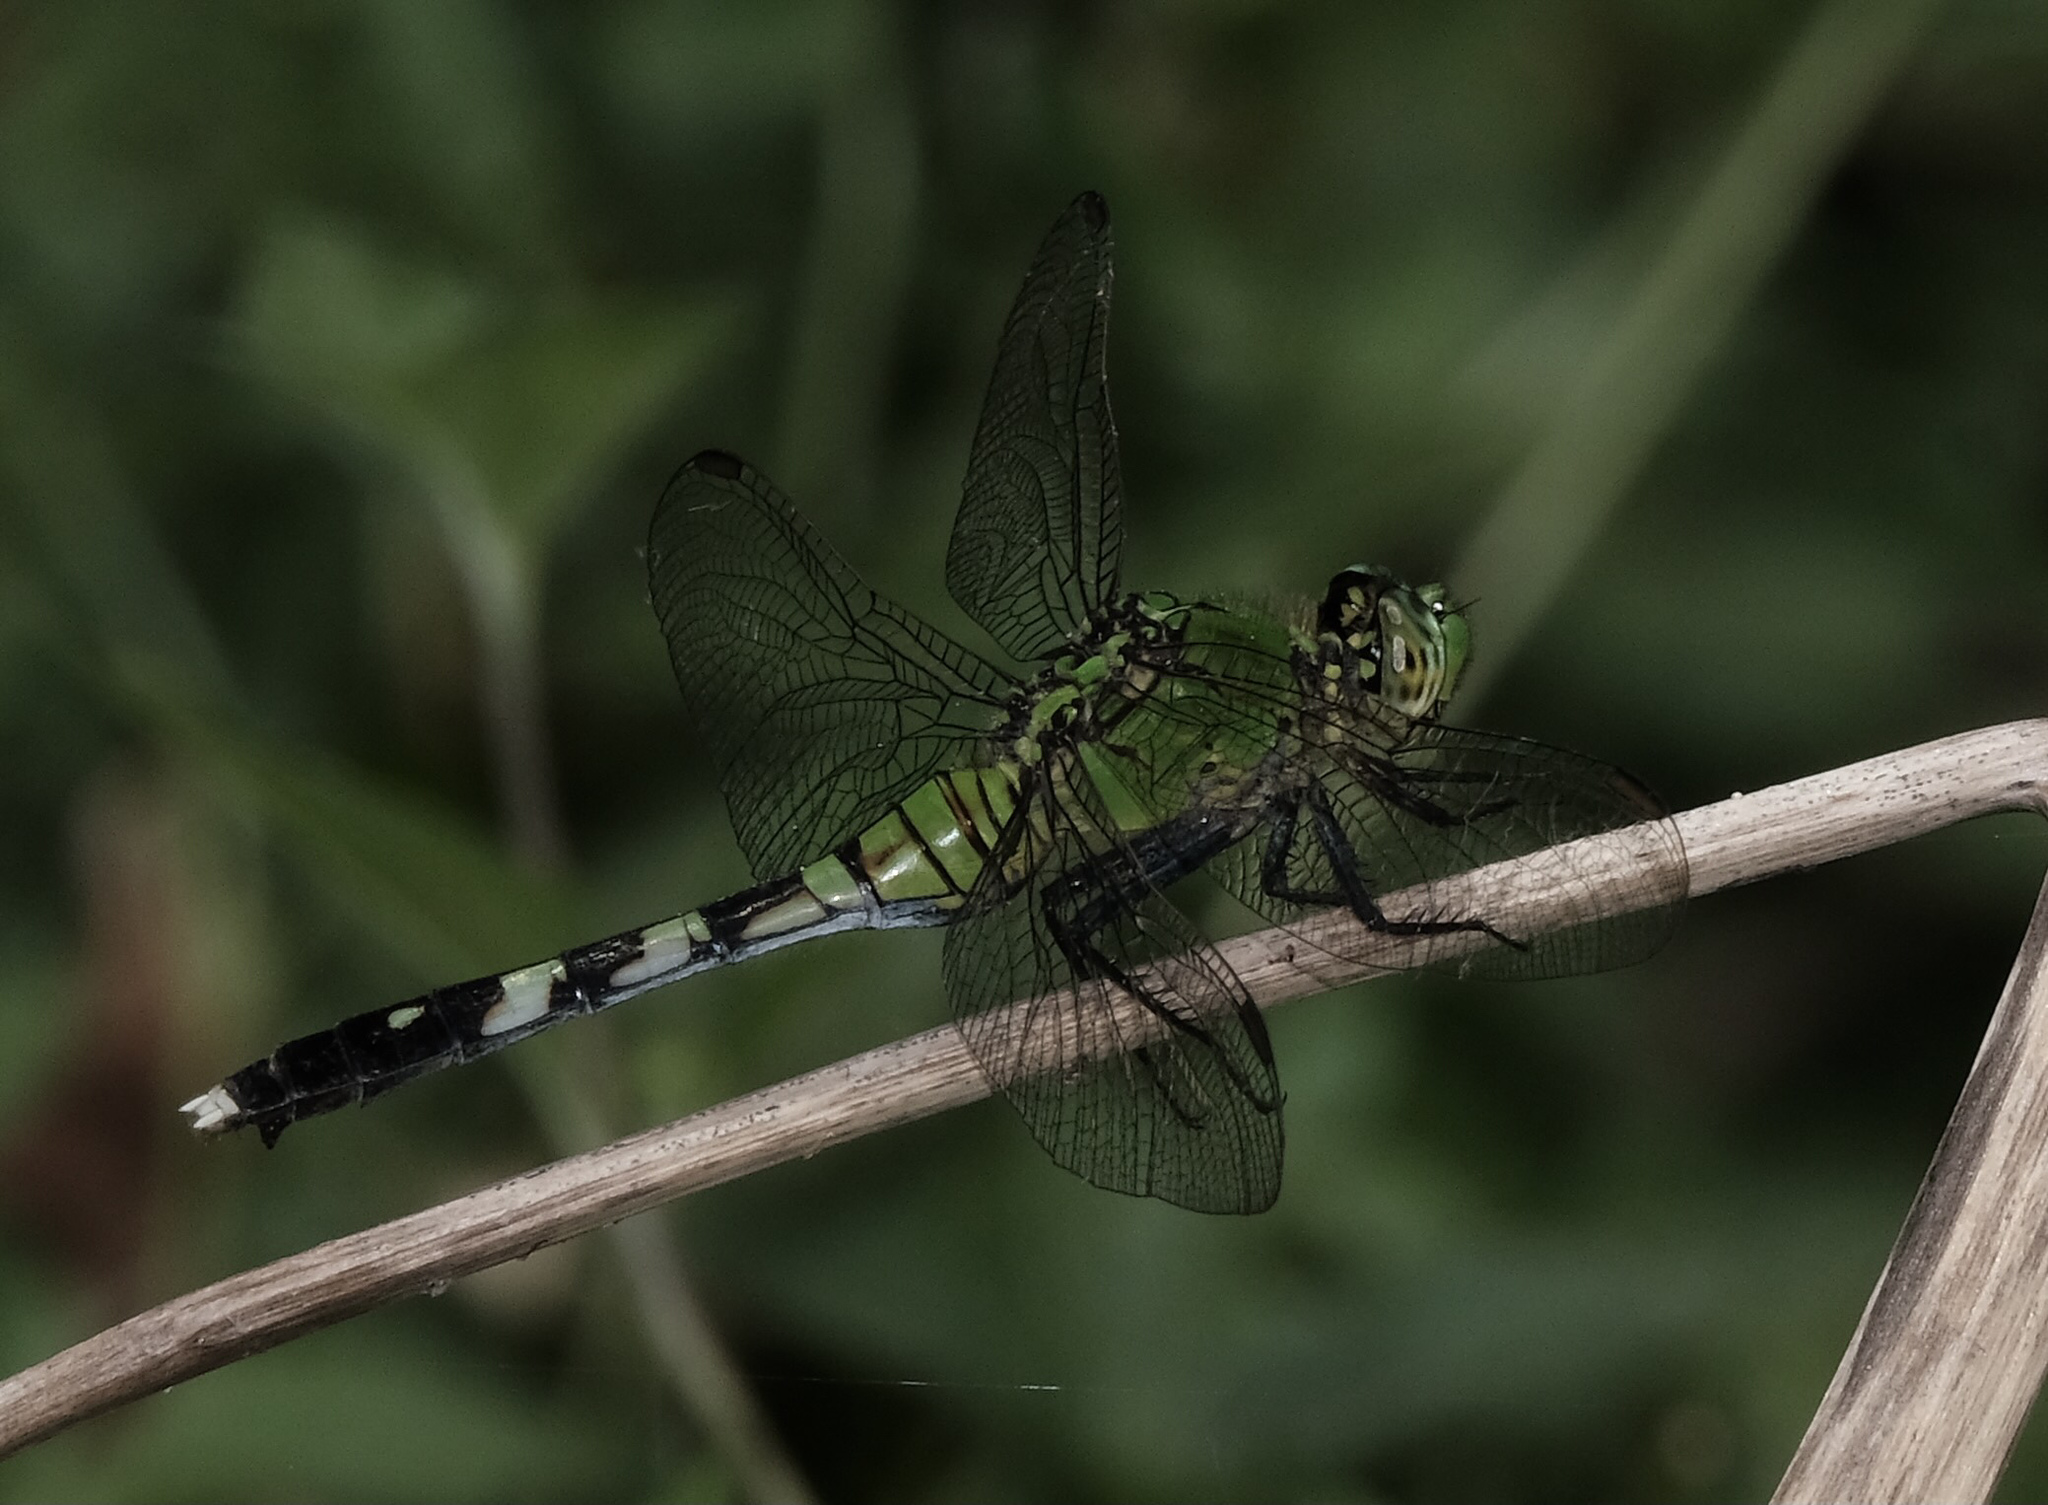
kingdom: Animalia
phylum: Arthropoda
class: Insecta
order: Odonata
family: Libellulidae
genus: Erythemis
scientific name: Erythemis simplicicollis
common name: Eastern pondhawk
